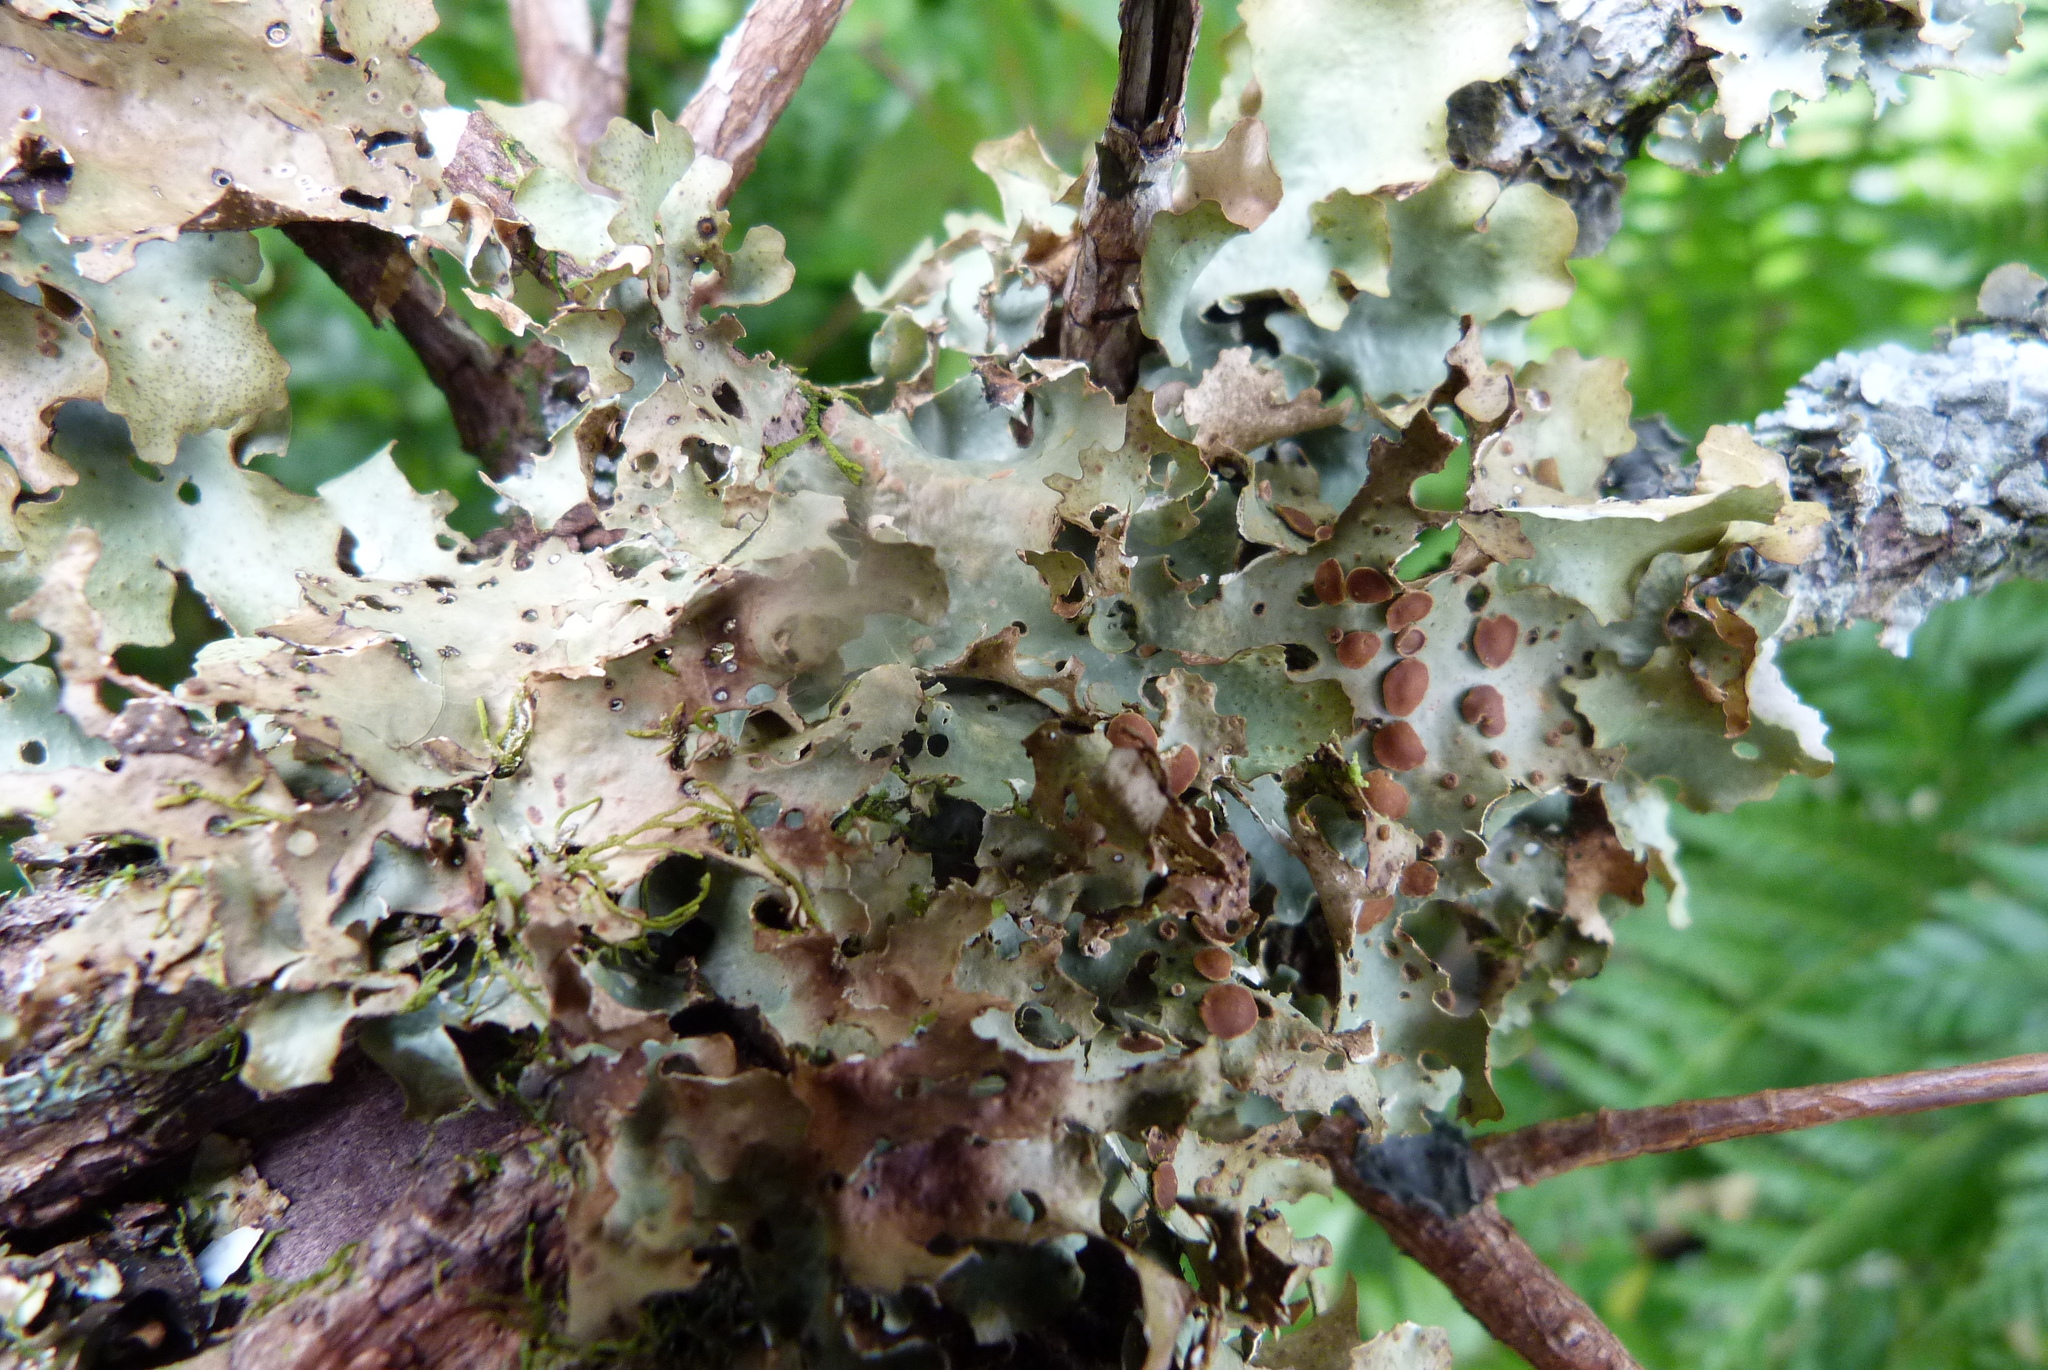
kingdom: Fungi
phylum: Ascomycota
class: Lecanoromycetes
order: Peltigerales
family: Lobariaceae
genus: Sticta
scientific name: Sticta caperata
